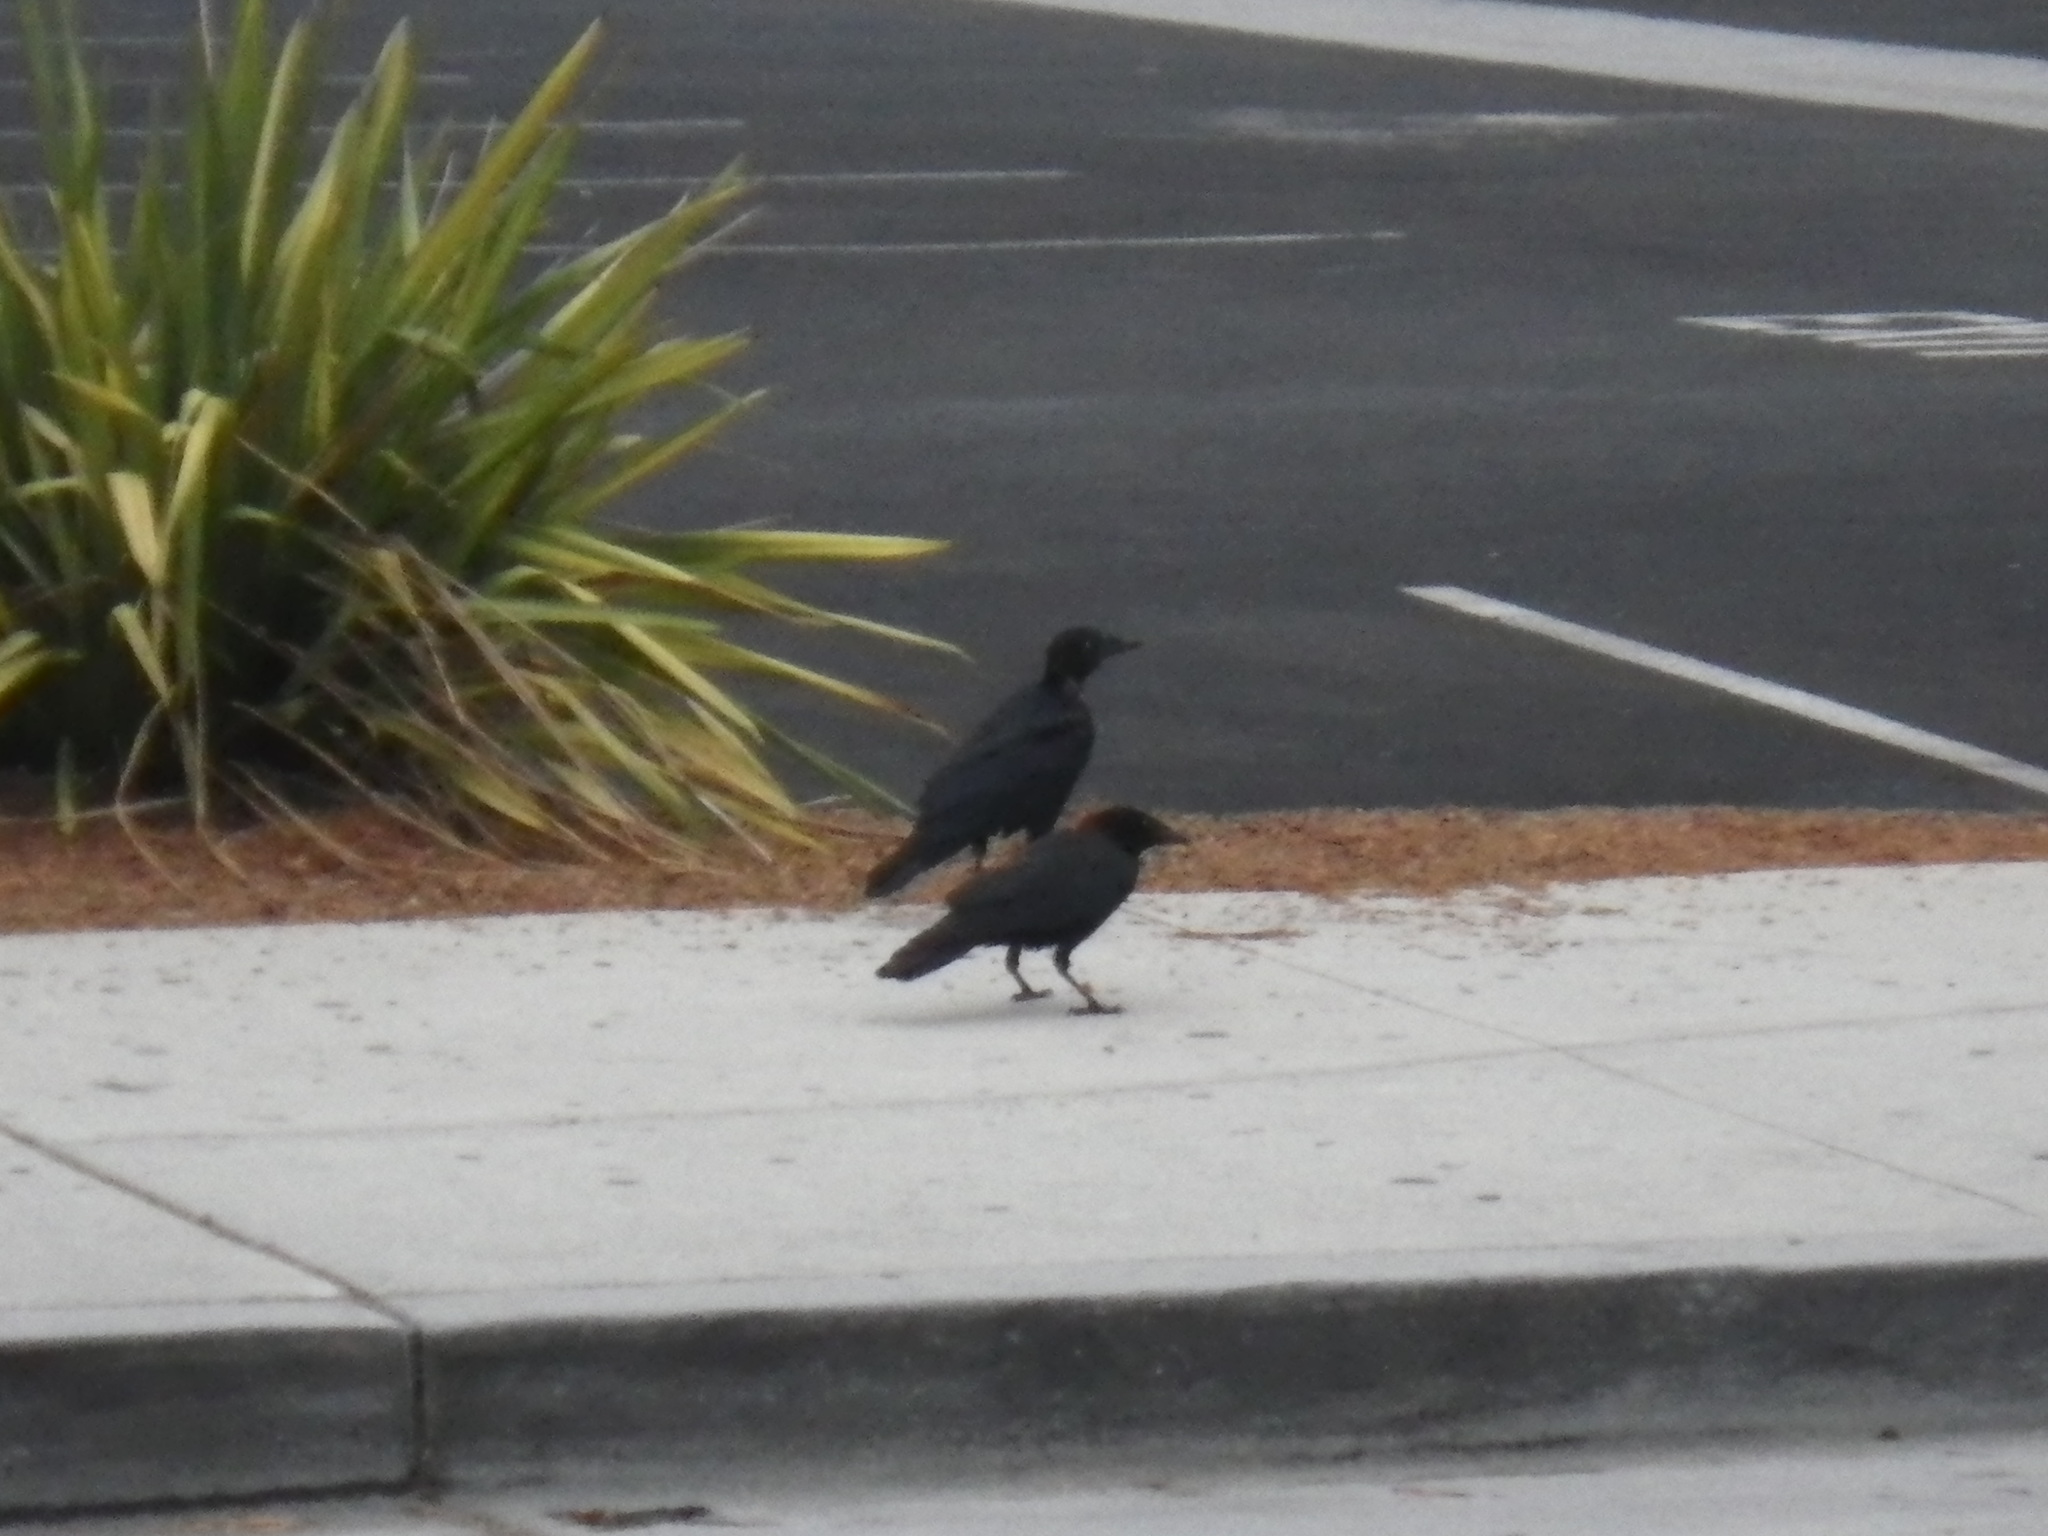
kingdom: Animalia
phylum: Chordata
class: Aves
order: Passeriformes
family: Corvidae
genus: Corvus
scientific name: Corvus brachyrhynchos
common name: American crow
